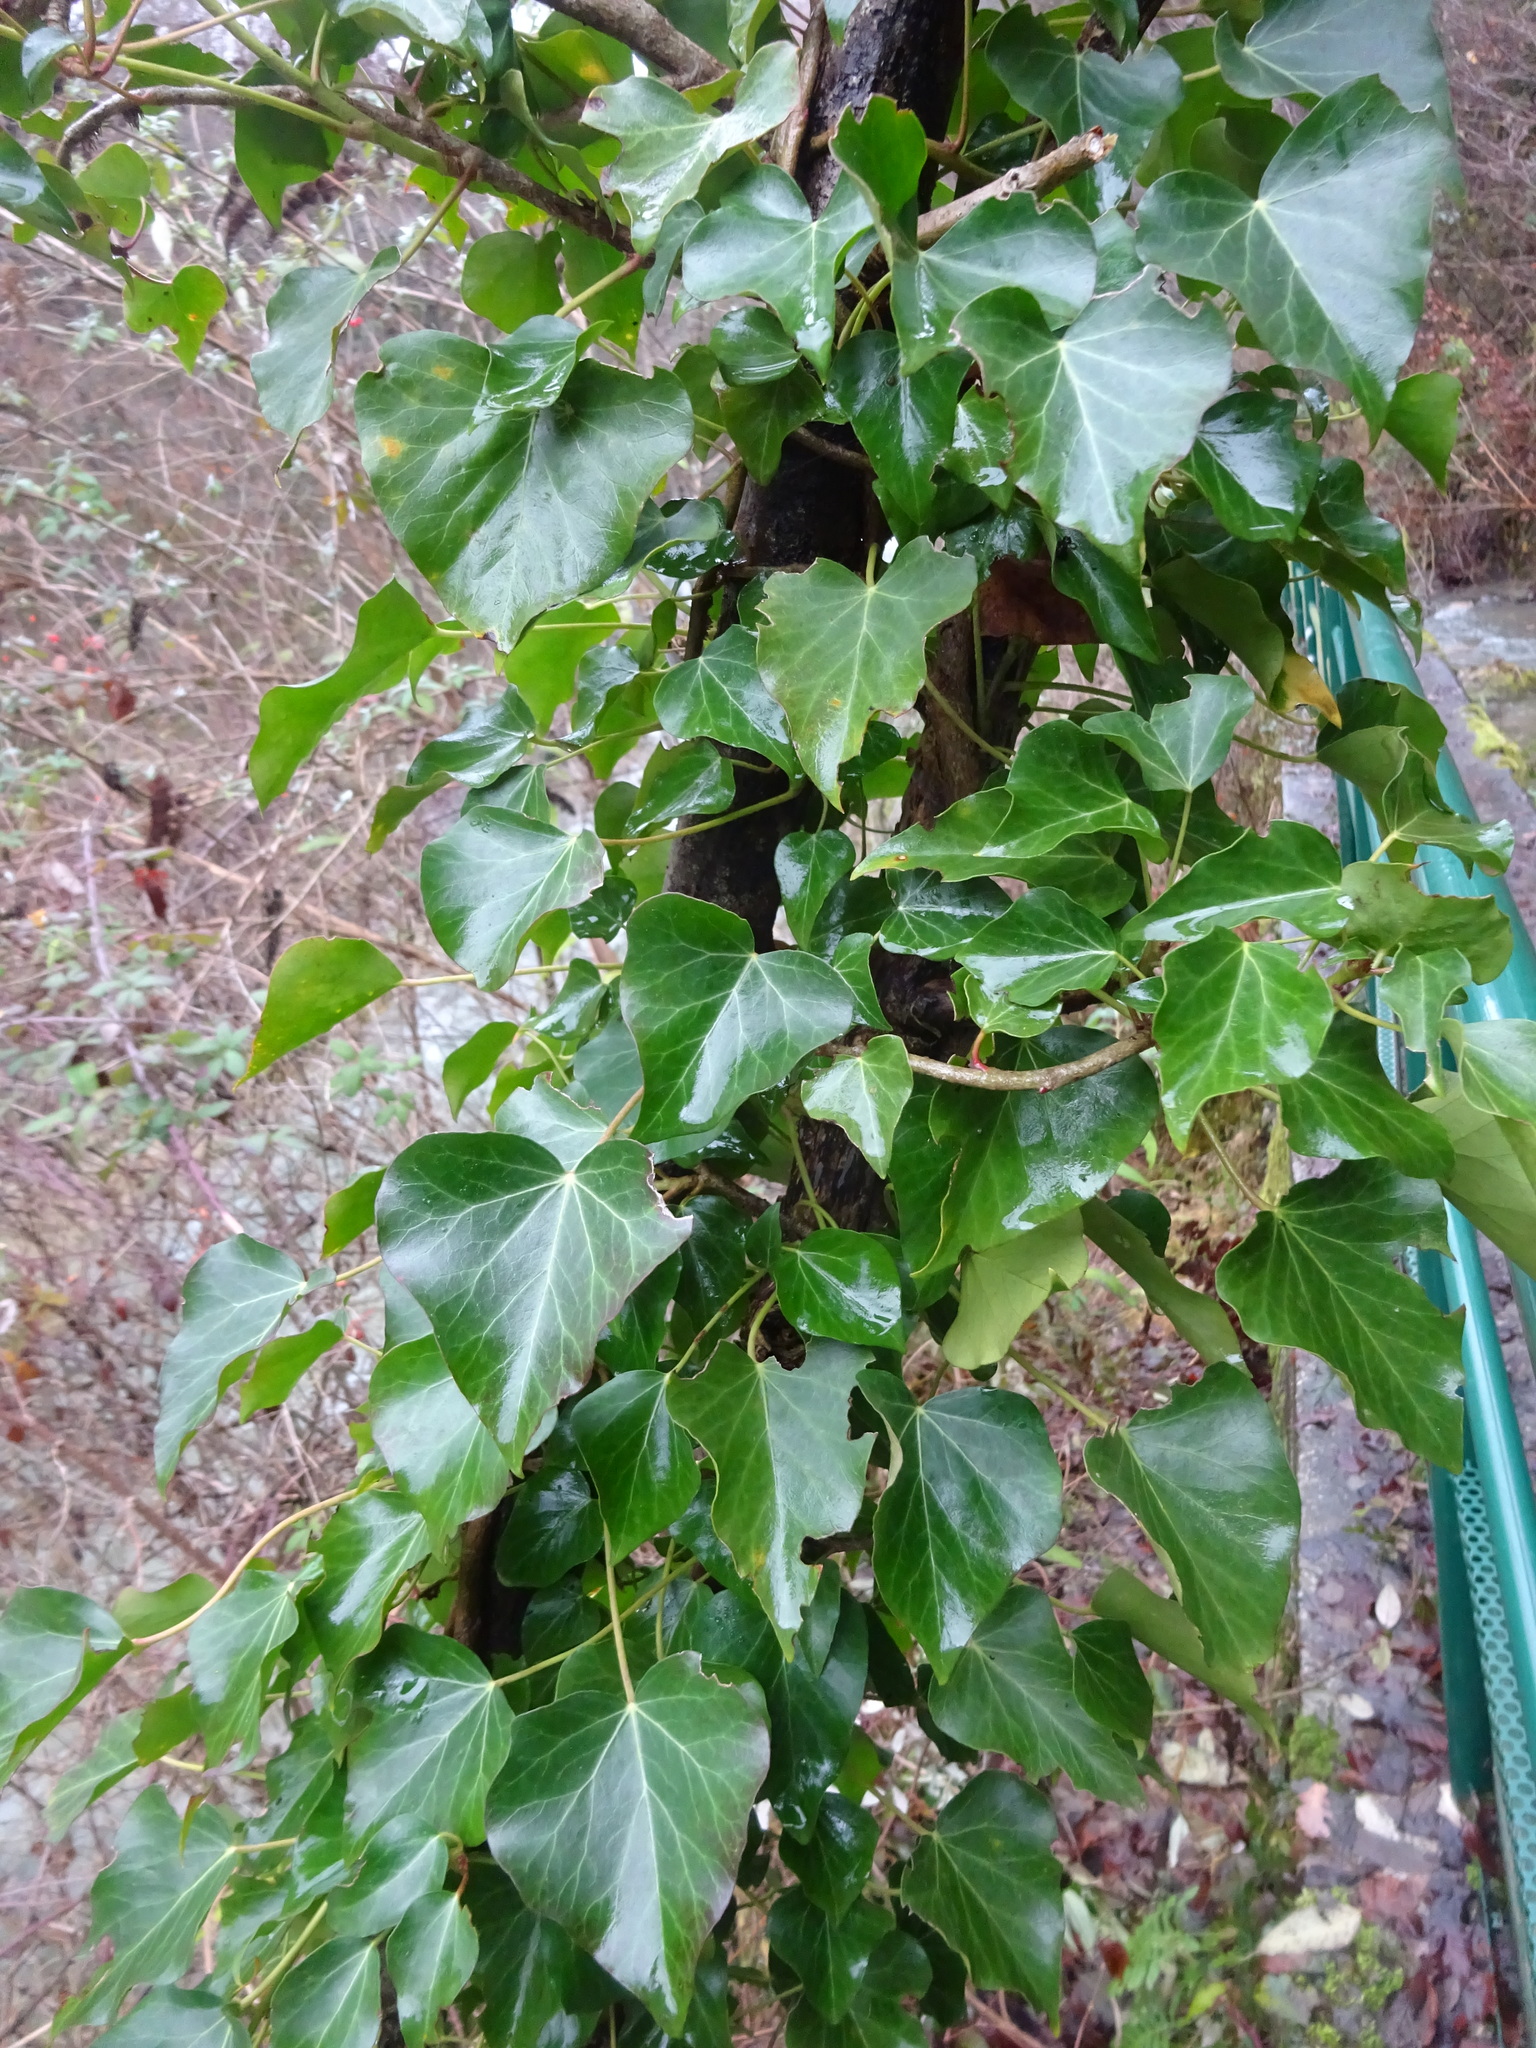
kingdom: Plantae
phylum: Tracheophyta
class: Magnoliopsida
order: Apiales
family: Araliaceae
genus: Hedera
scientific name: Hedera helix
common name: Ivy
